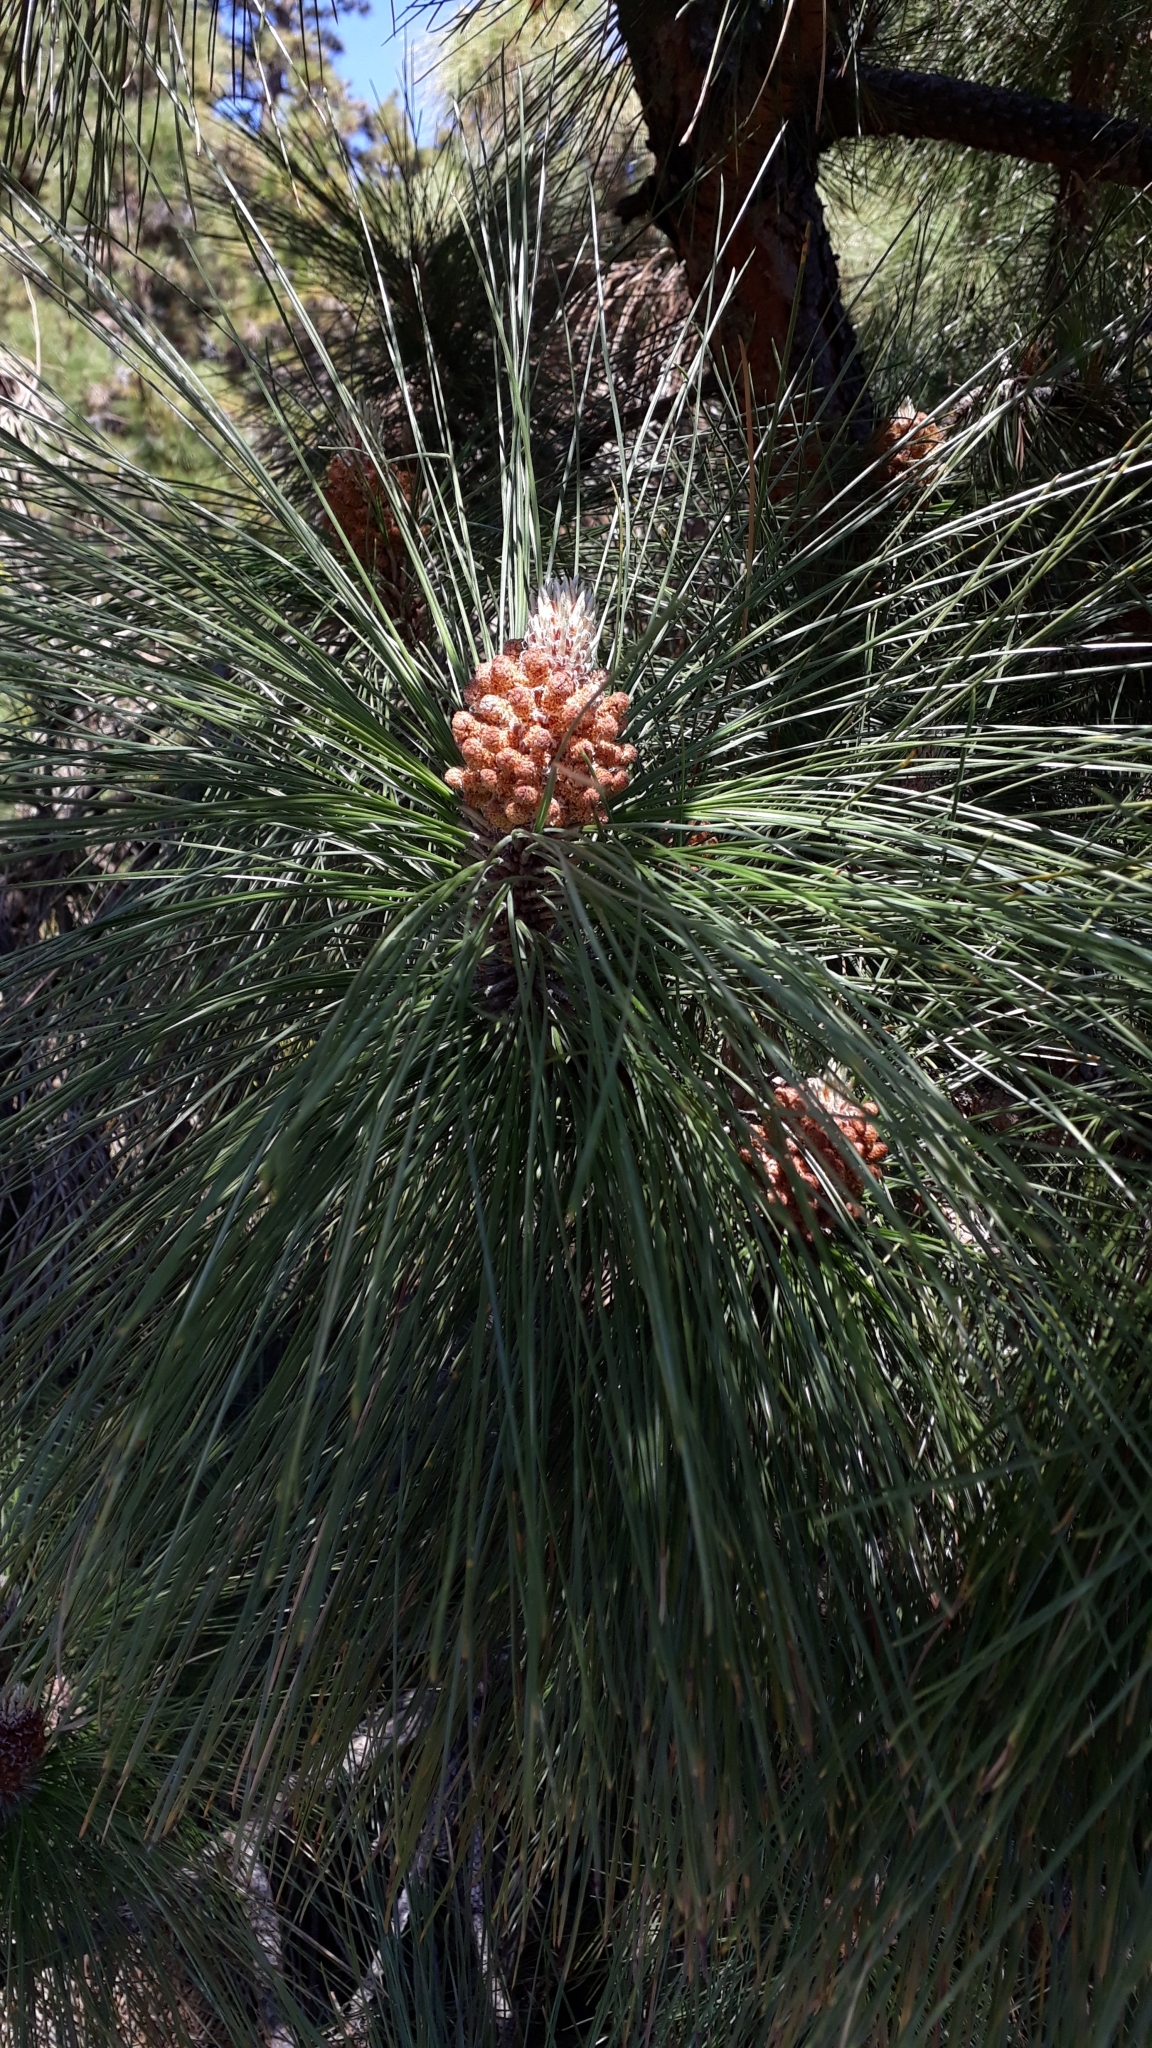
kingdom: Plantae
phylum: Tracheophyta
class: Pinopsida
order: Pinales
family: Pinaceae
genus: Pinus
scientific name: Pinus canariensis
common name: Canary islands pine
